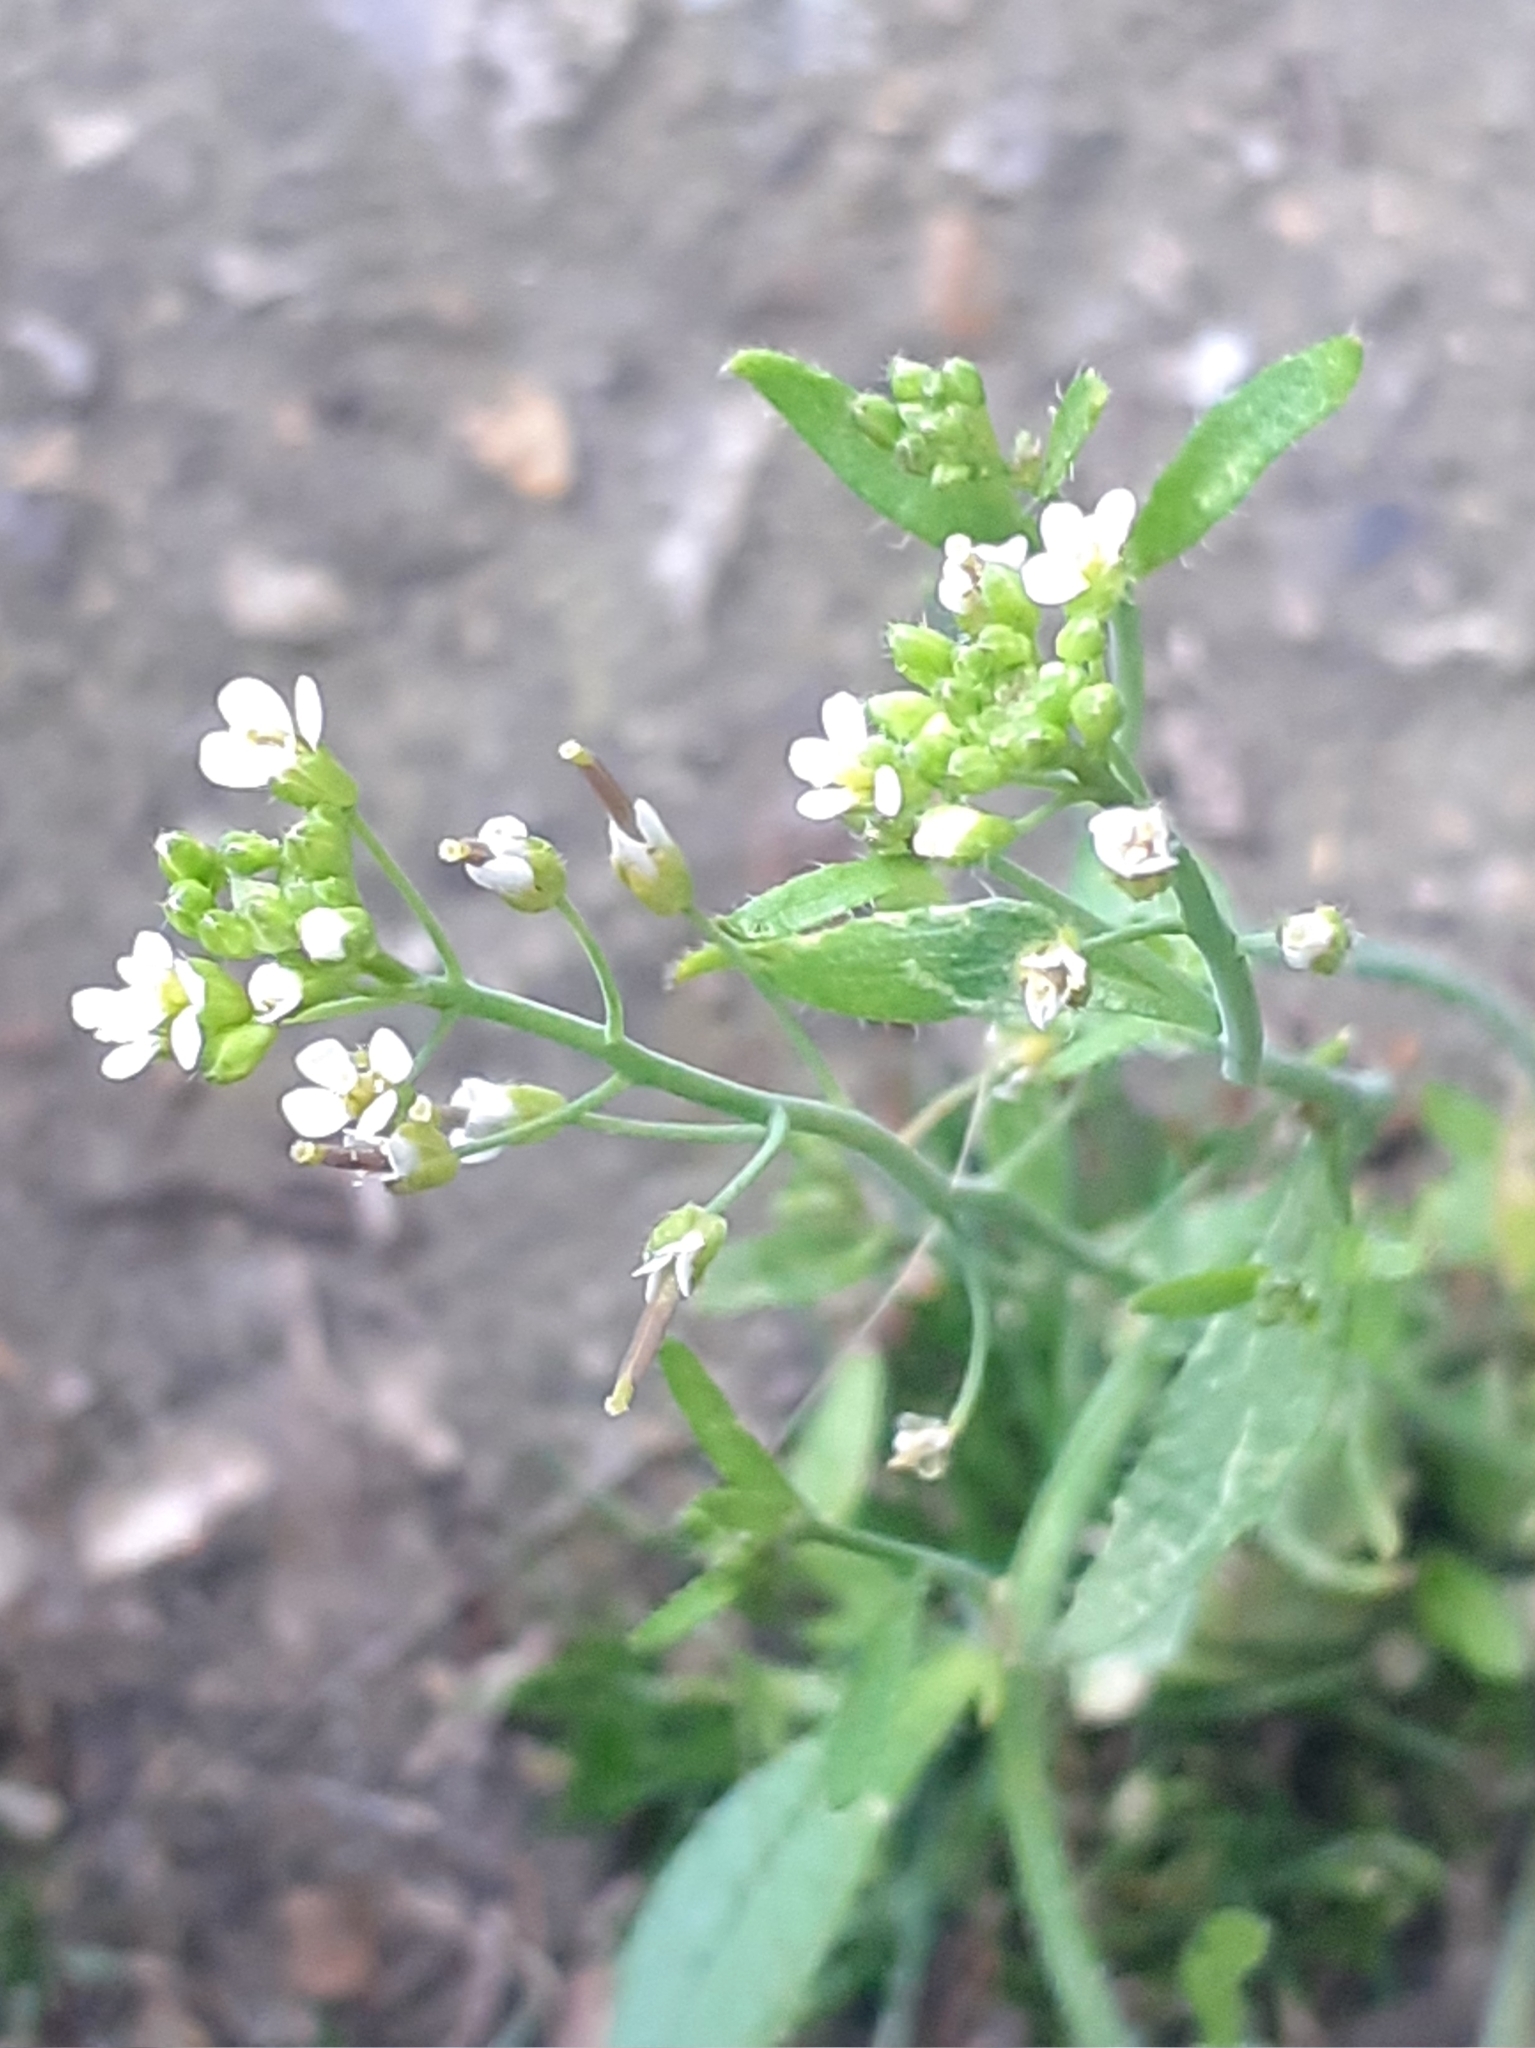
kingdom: Plantae
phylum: Tracheophyta
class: Magnoliopsida
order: Brassicales
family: Brassicaceae
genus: Arabidopsis
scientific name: Arabidopsis thaliana
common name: Thale cress
